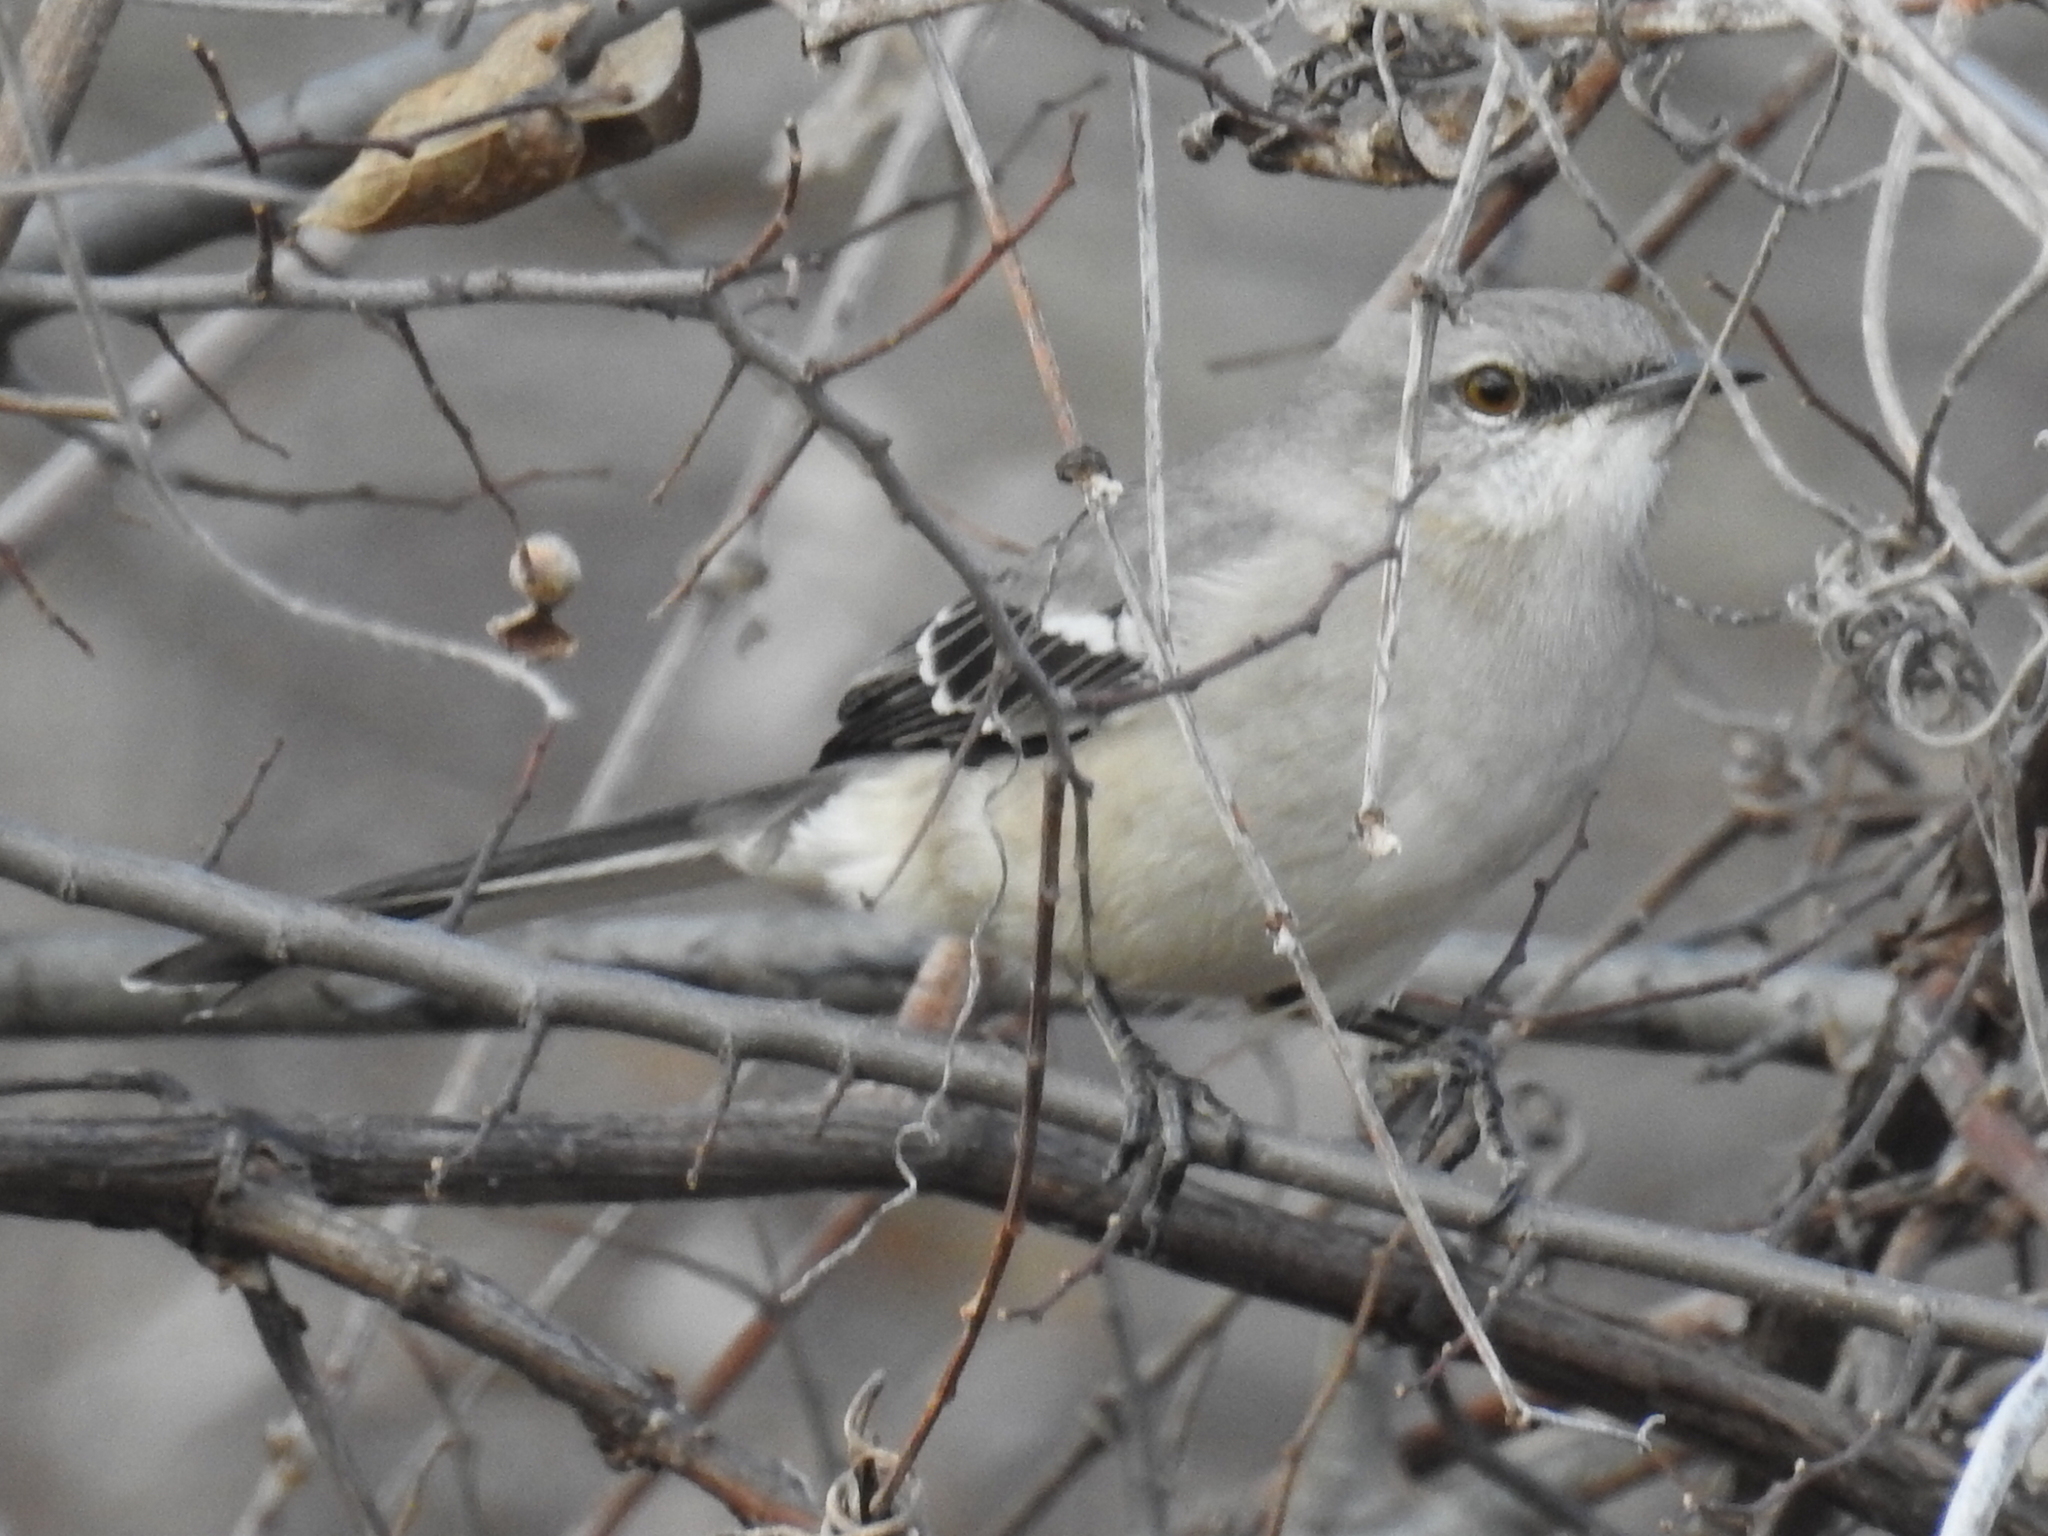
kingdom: Animalia
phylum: Chordata
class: Aves
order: Passeriformes
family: Mimidae
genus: Mimus
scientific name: Mimus polyglottos
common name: Northern mockingbird
